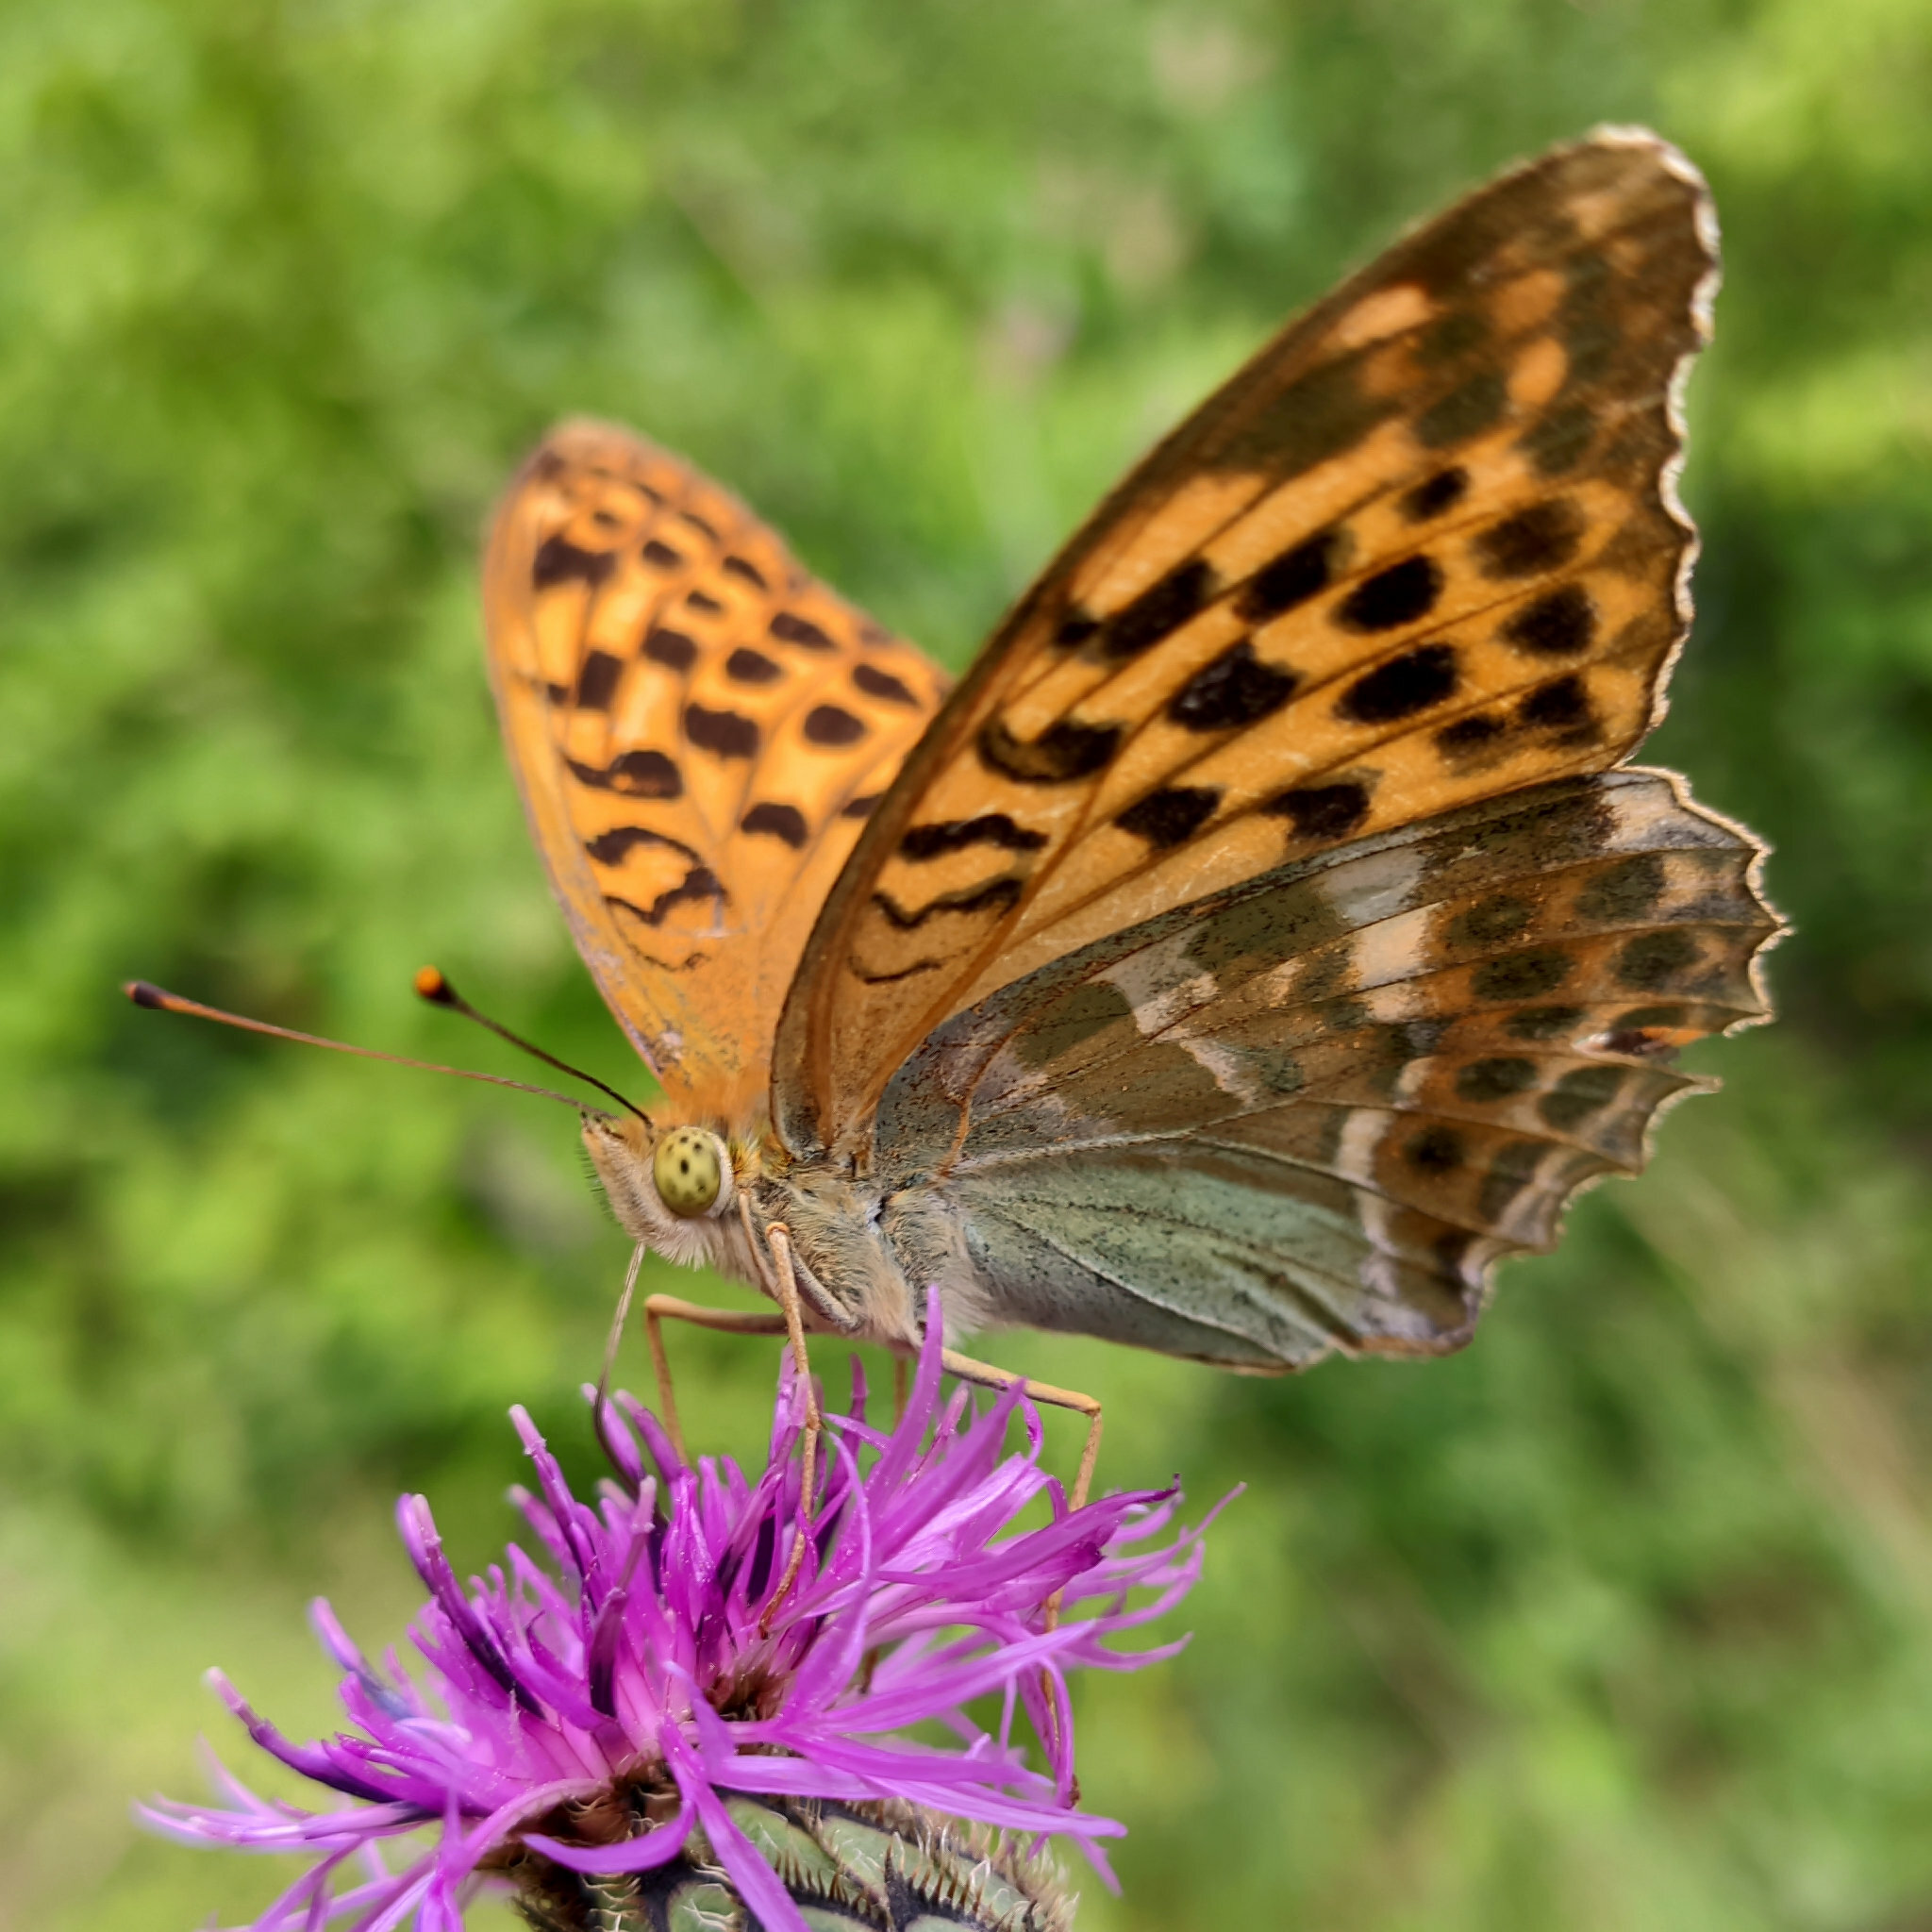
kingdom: Animalia
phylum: Arthropoda
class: Insecta
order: Lepidoptera
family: Nymphalidae
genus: Argynnis
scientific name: Argynnis paphia
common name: Silver-washed fritillary
